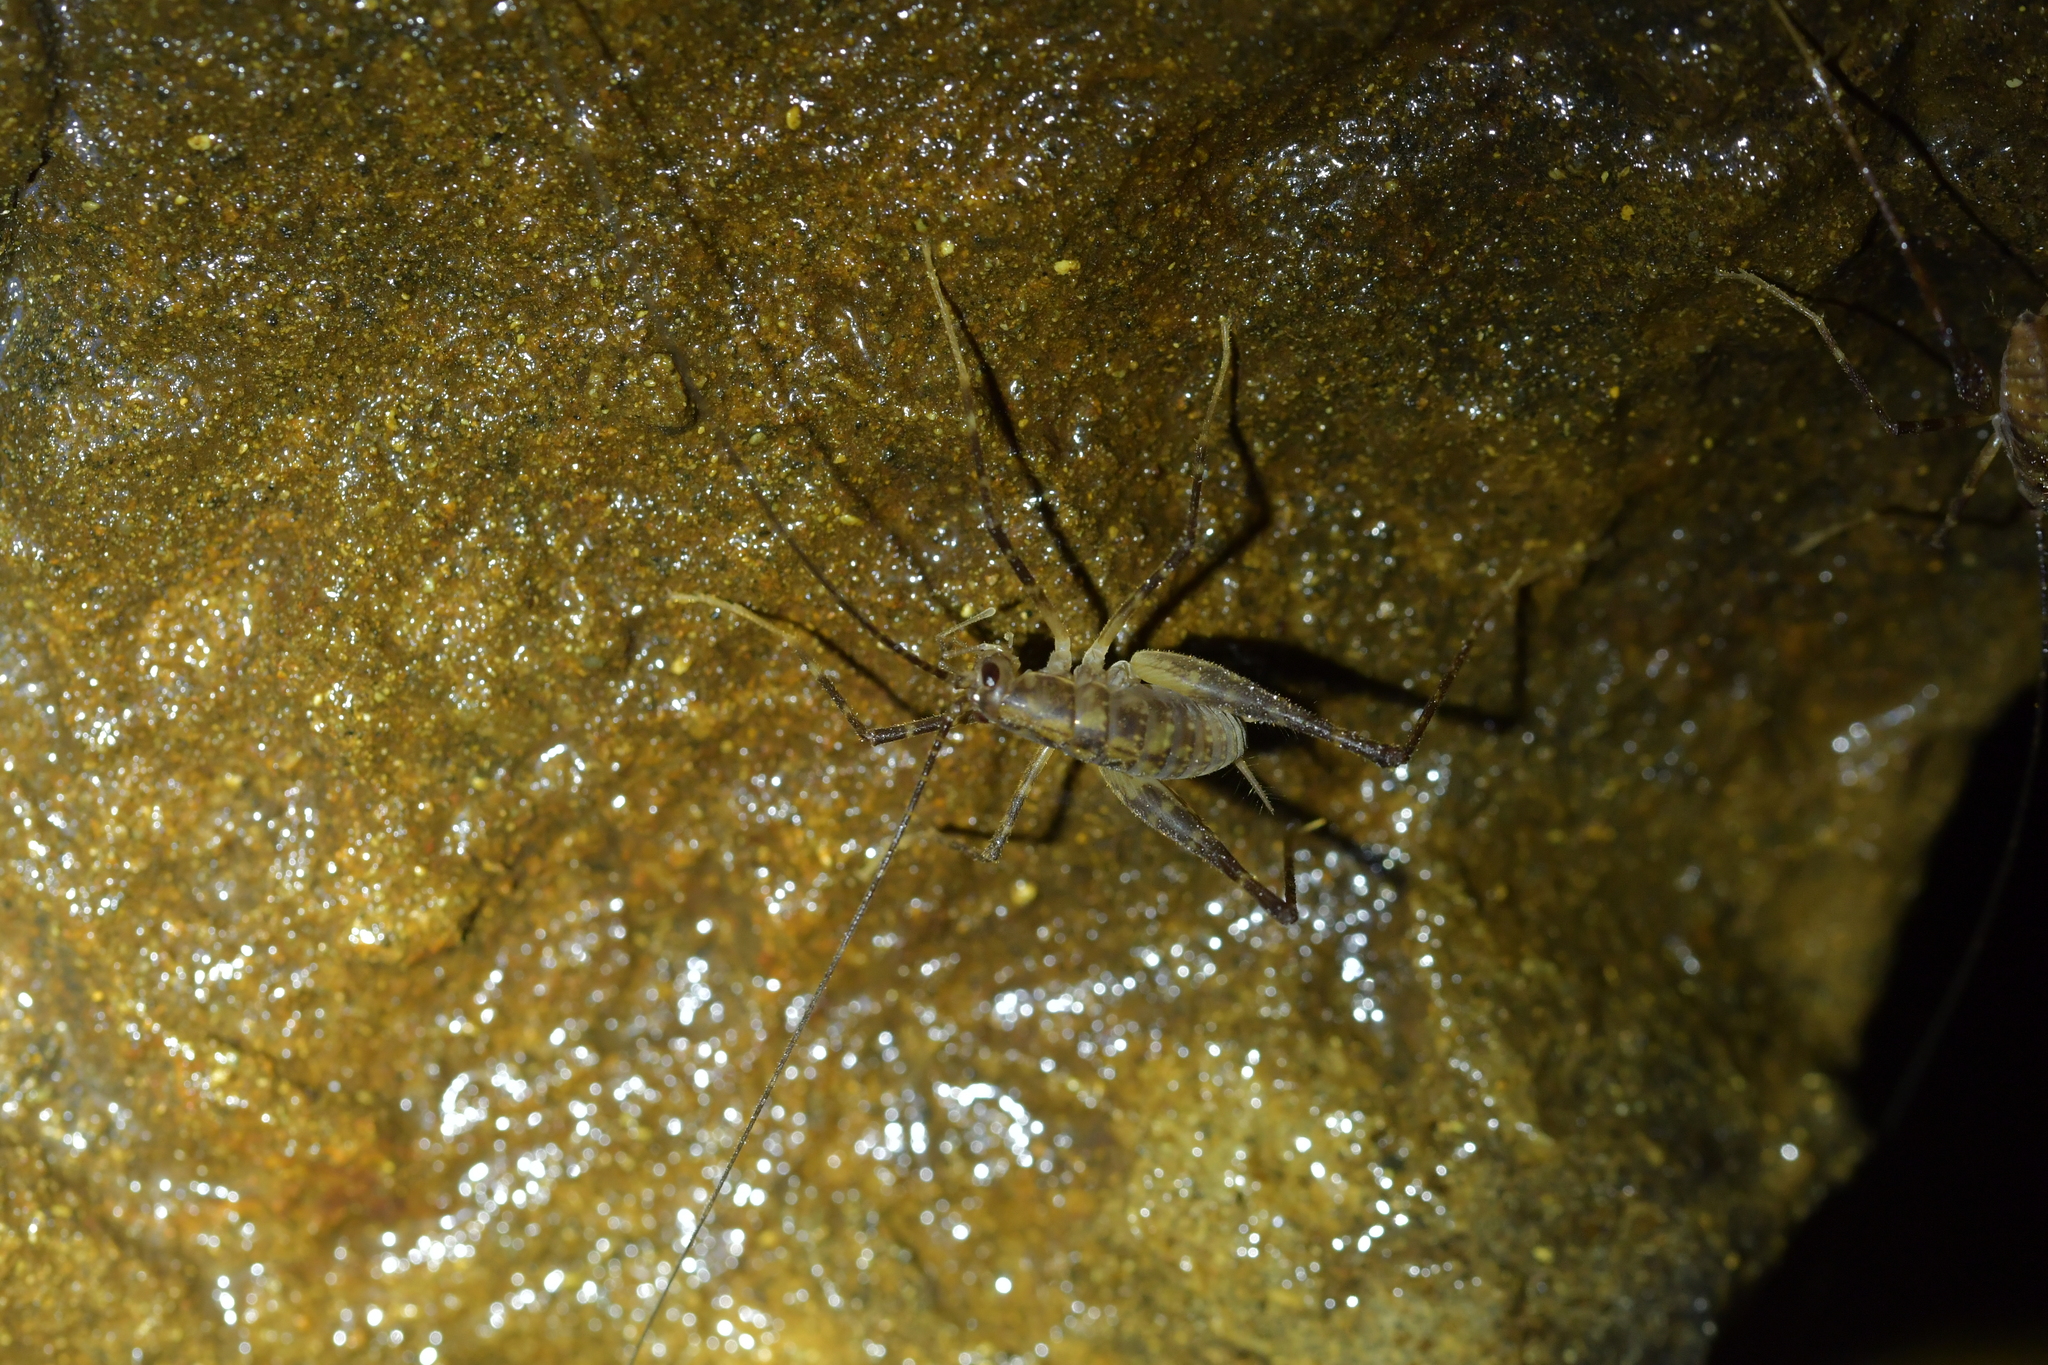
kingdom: Animalia
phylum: Arthropoda
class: Insecta
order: Orthoptera
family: Rhaphidophoridae
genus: Pachyrhamma
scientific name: Pachyrhamma acanthocera
